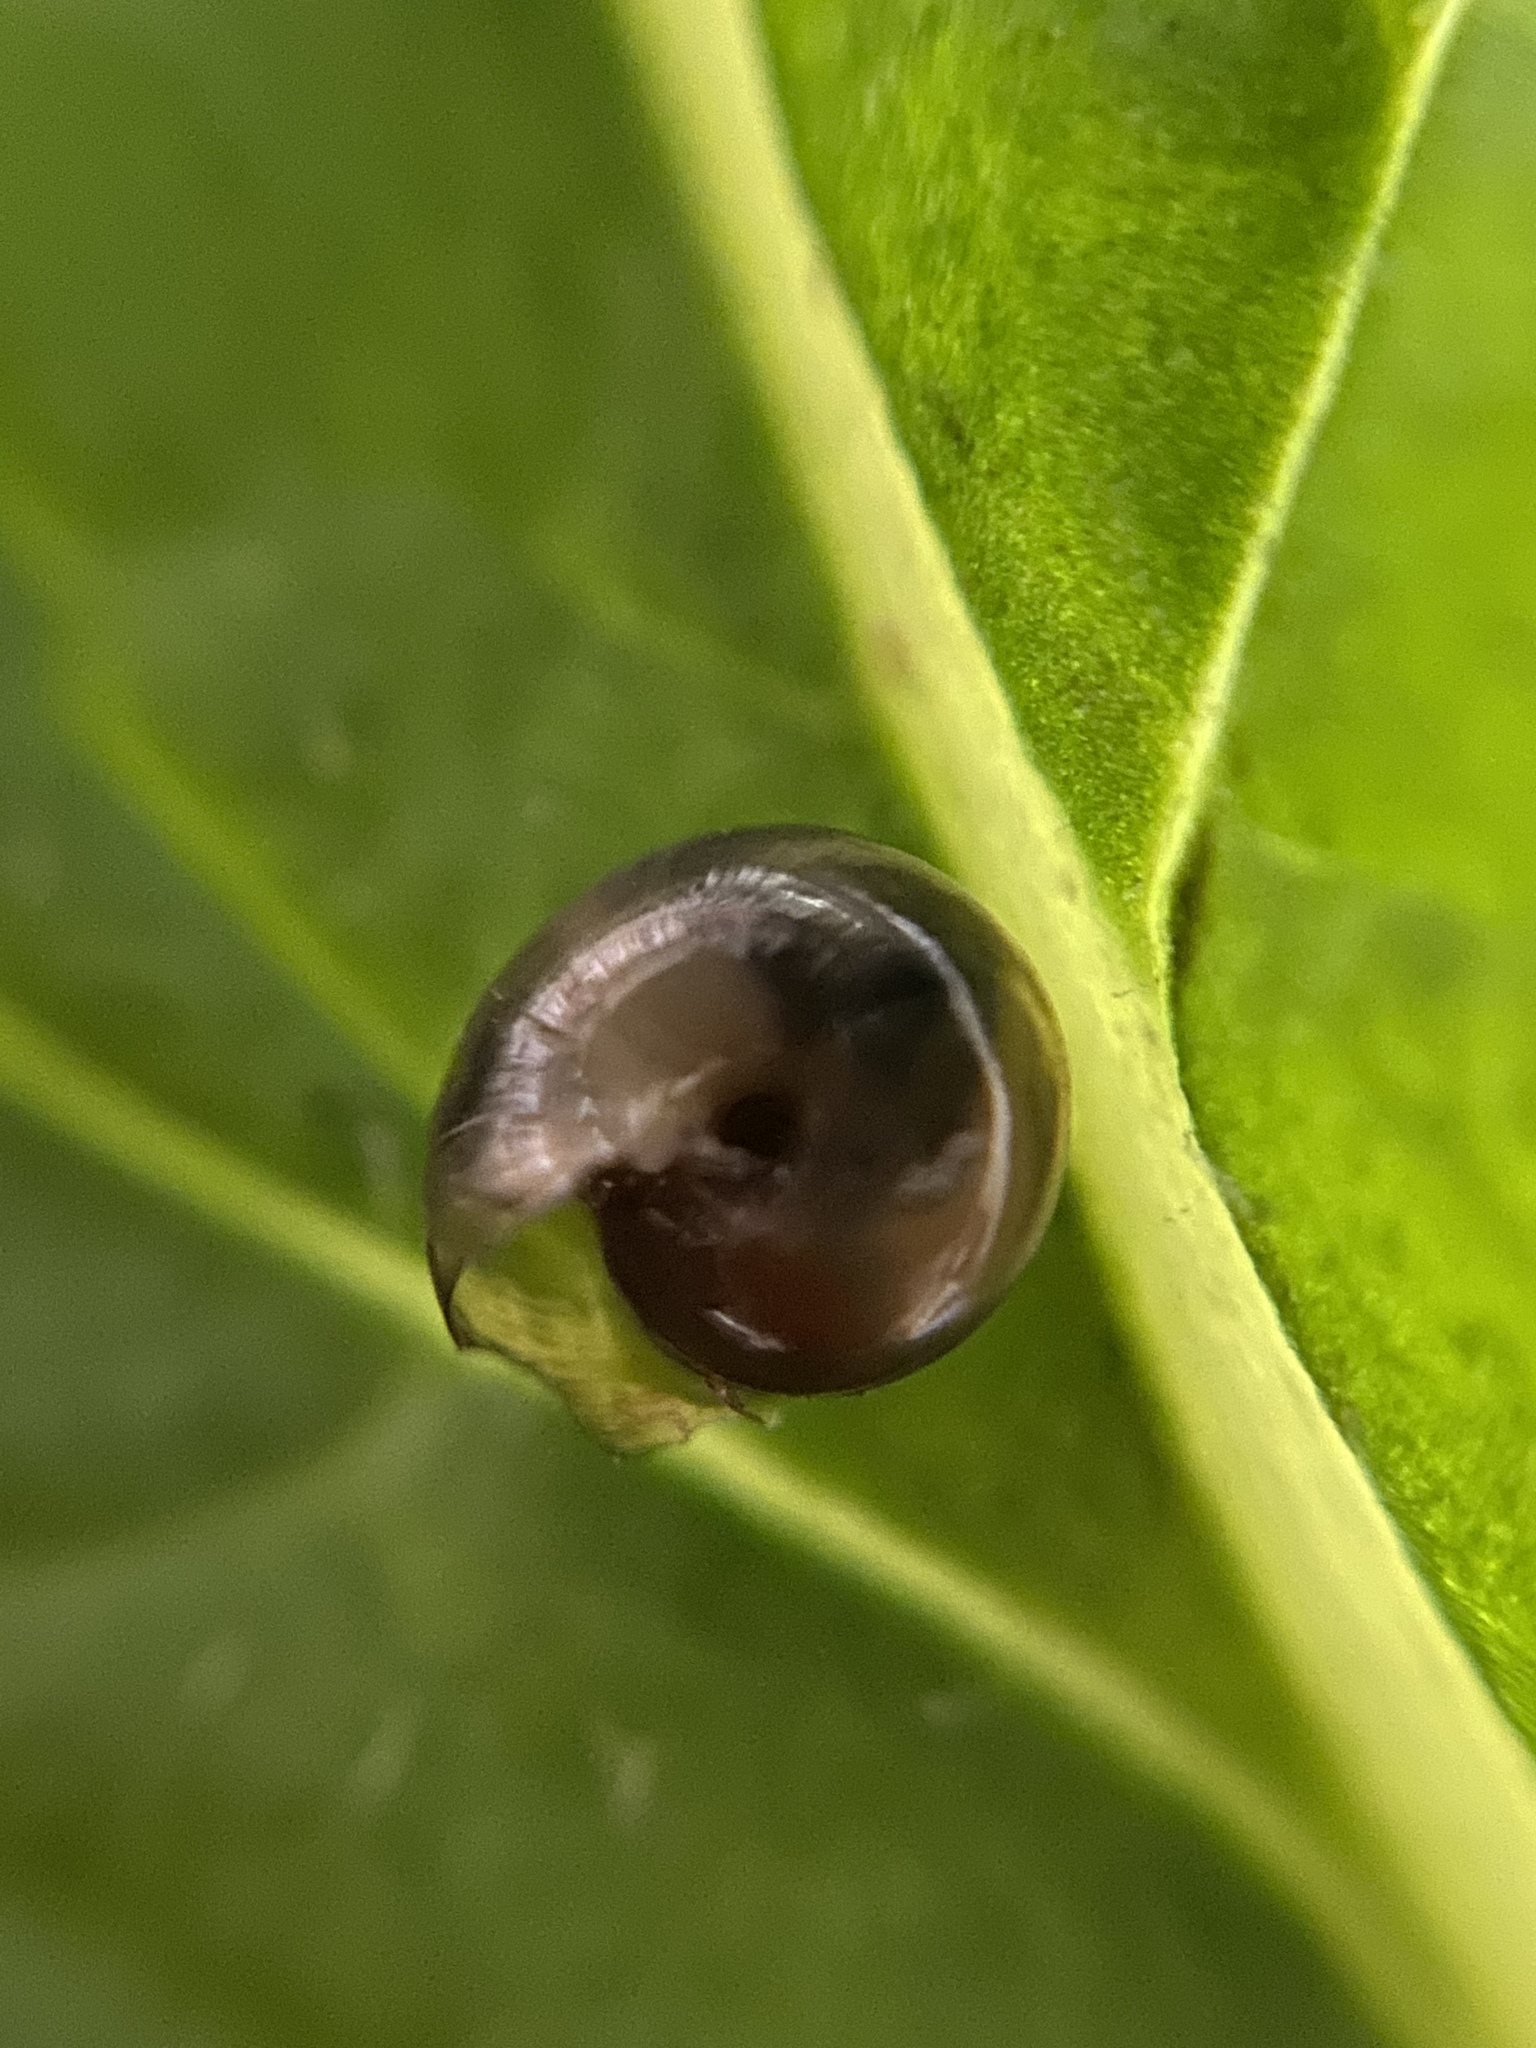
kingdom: Animalia
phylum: Mollusca
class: Gastropoda
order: Stylommatophora
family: Gastrodontidae
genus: Zonitoides
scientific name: Zonitoides arboreus
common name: Quick gloss
